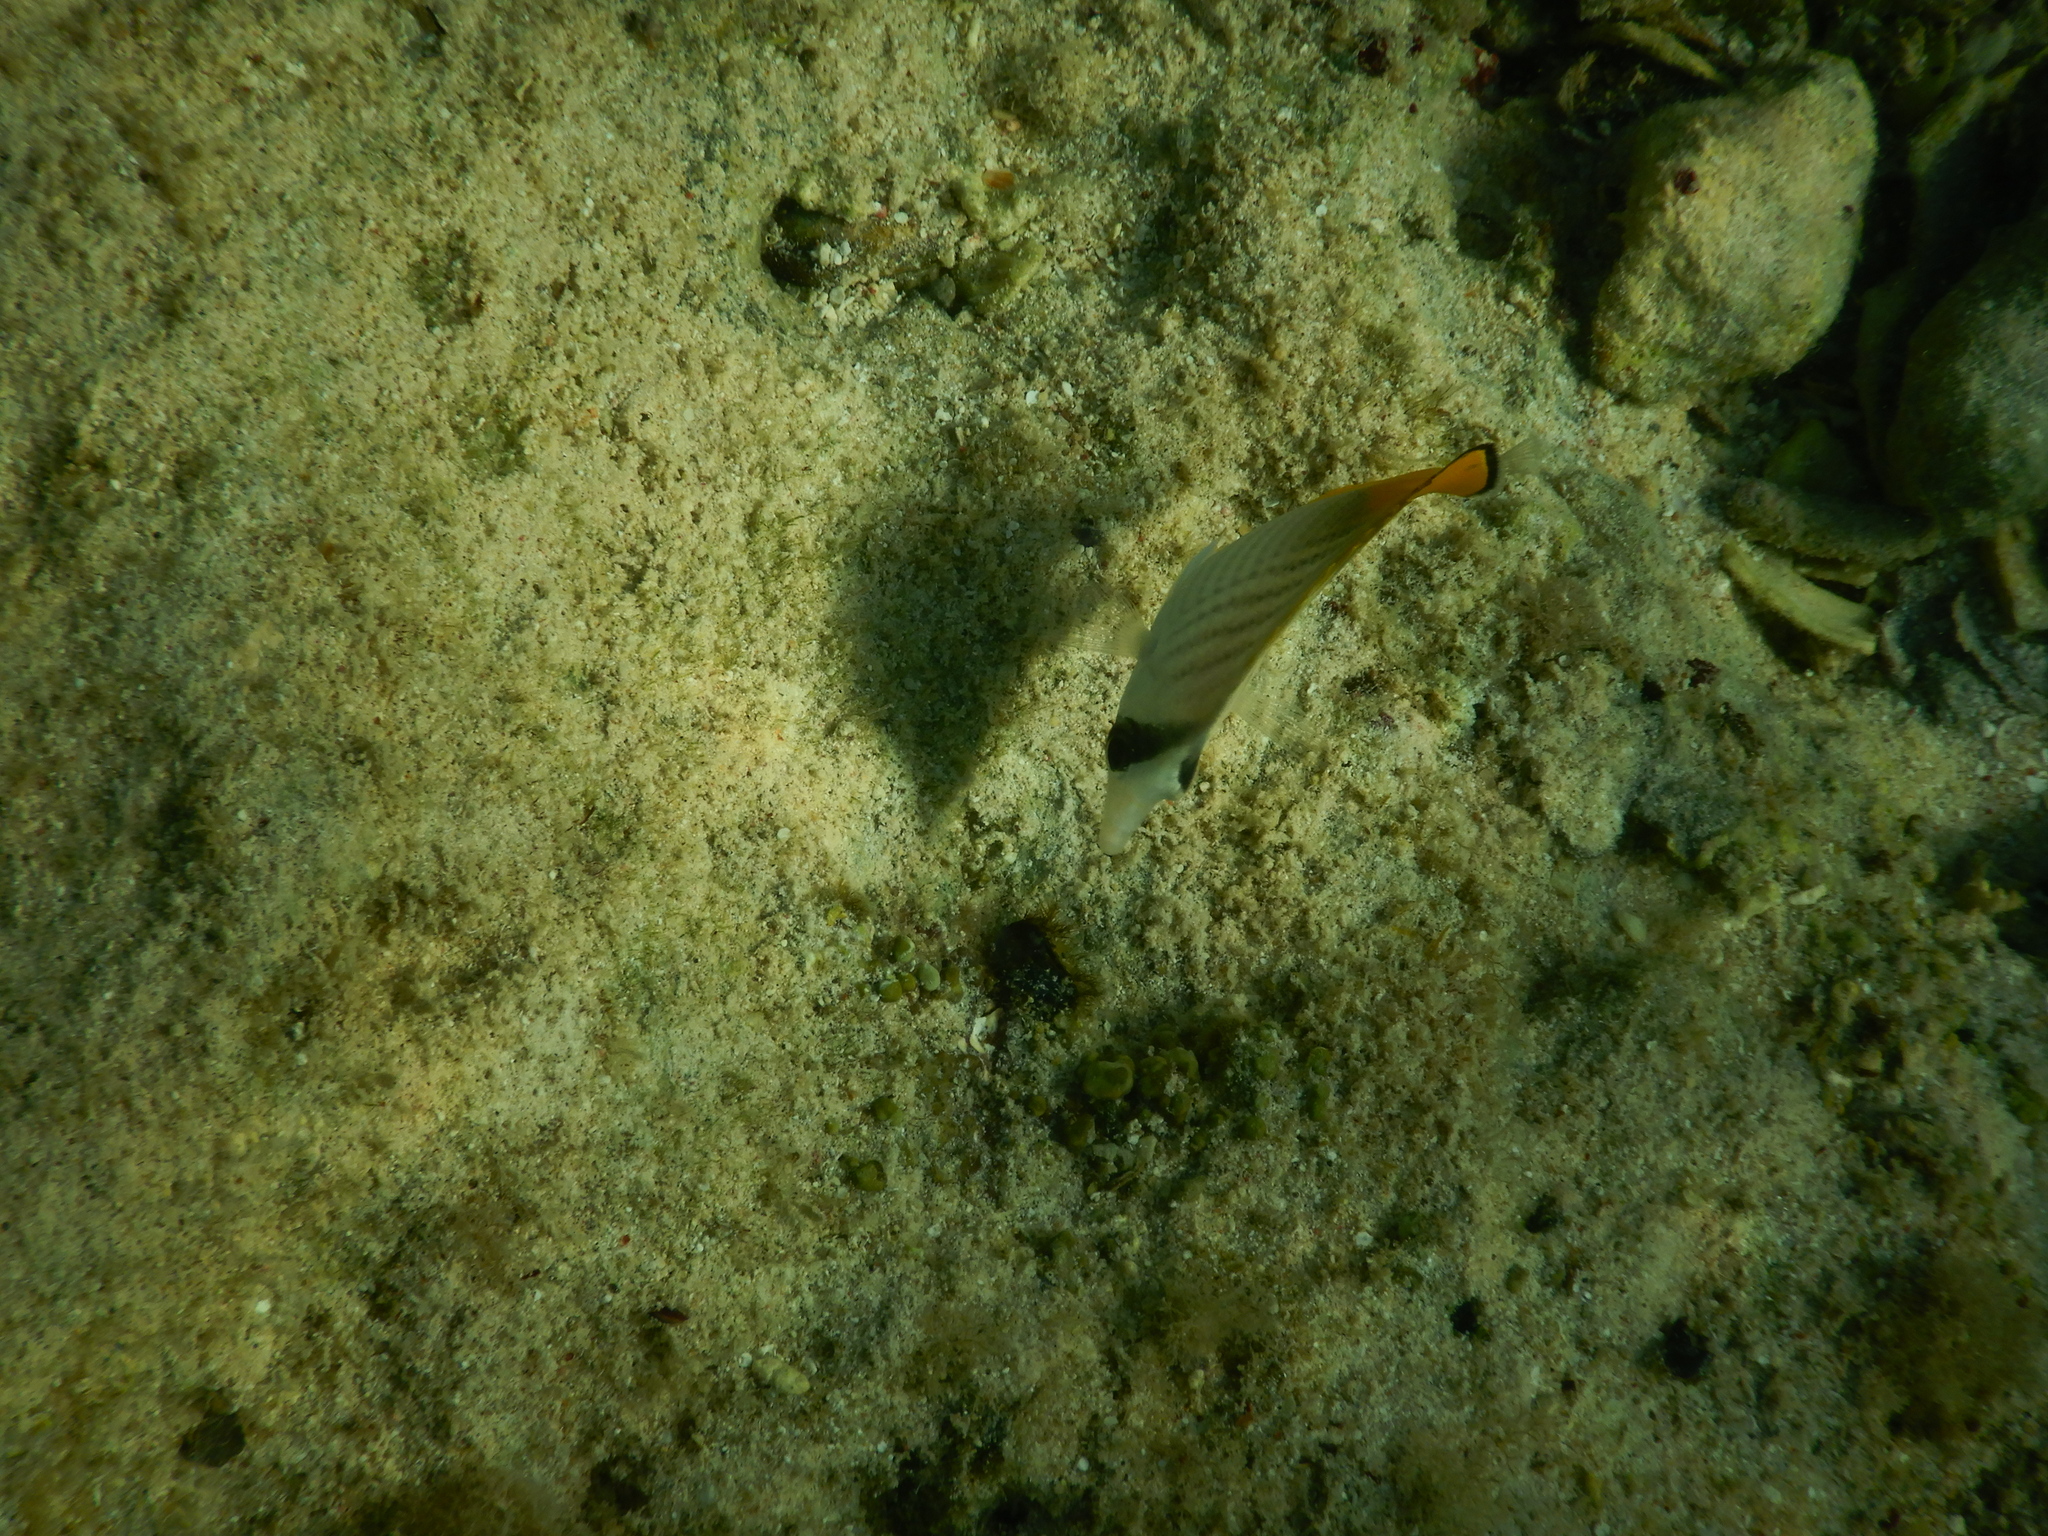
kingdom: Animalia
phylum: Chordata
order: Perciformes
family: Chaetodontidae
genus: Chaetodon
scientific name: Chaetodon auriga
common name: Threadfin butterflyfish
